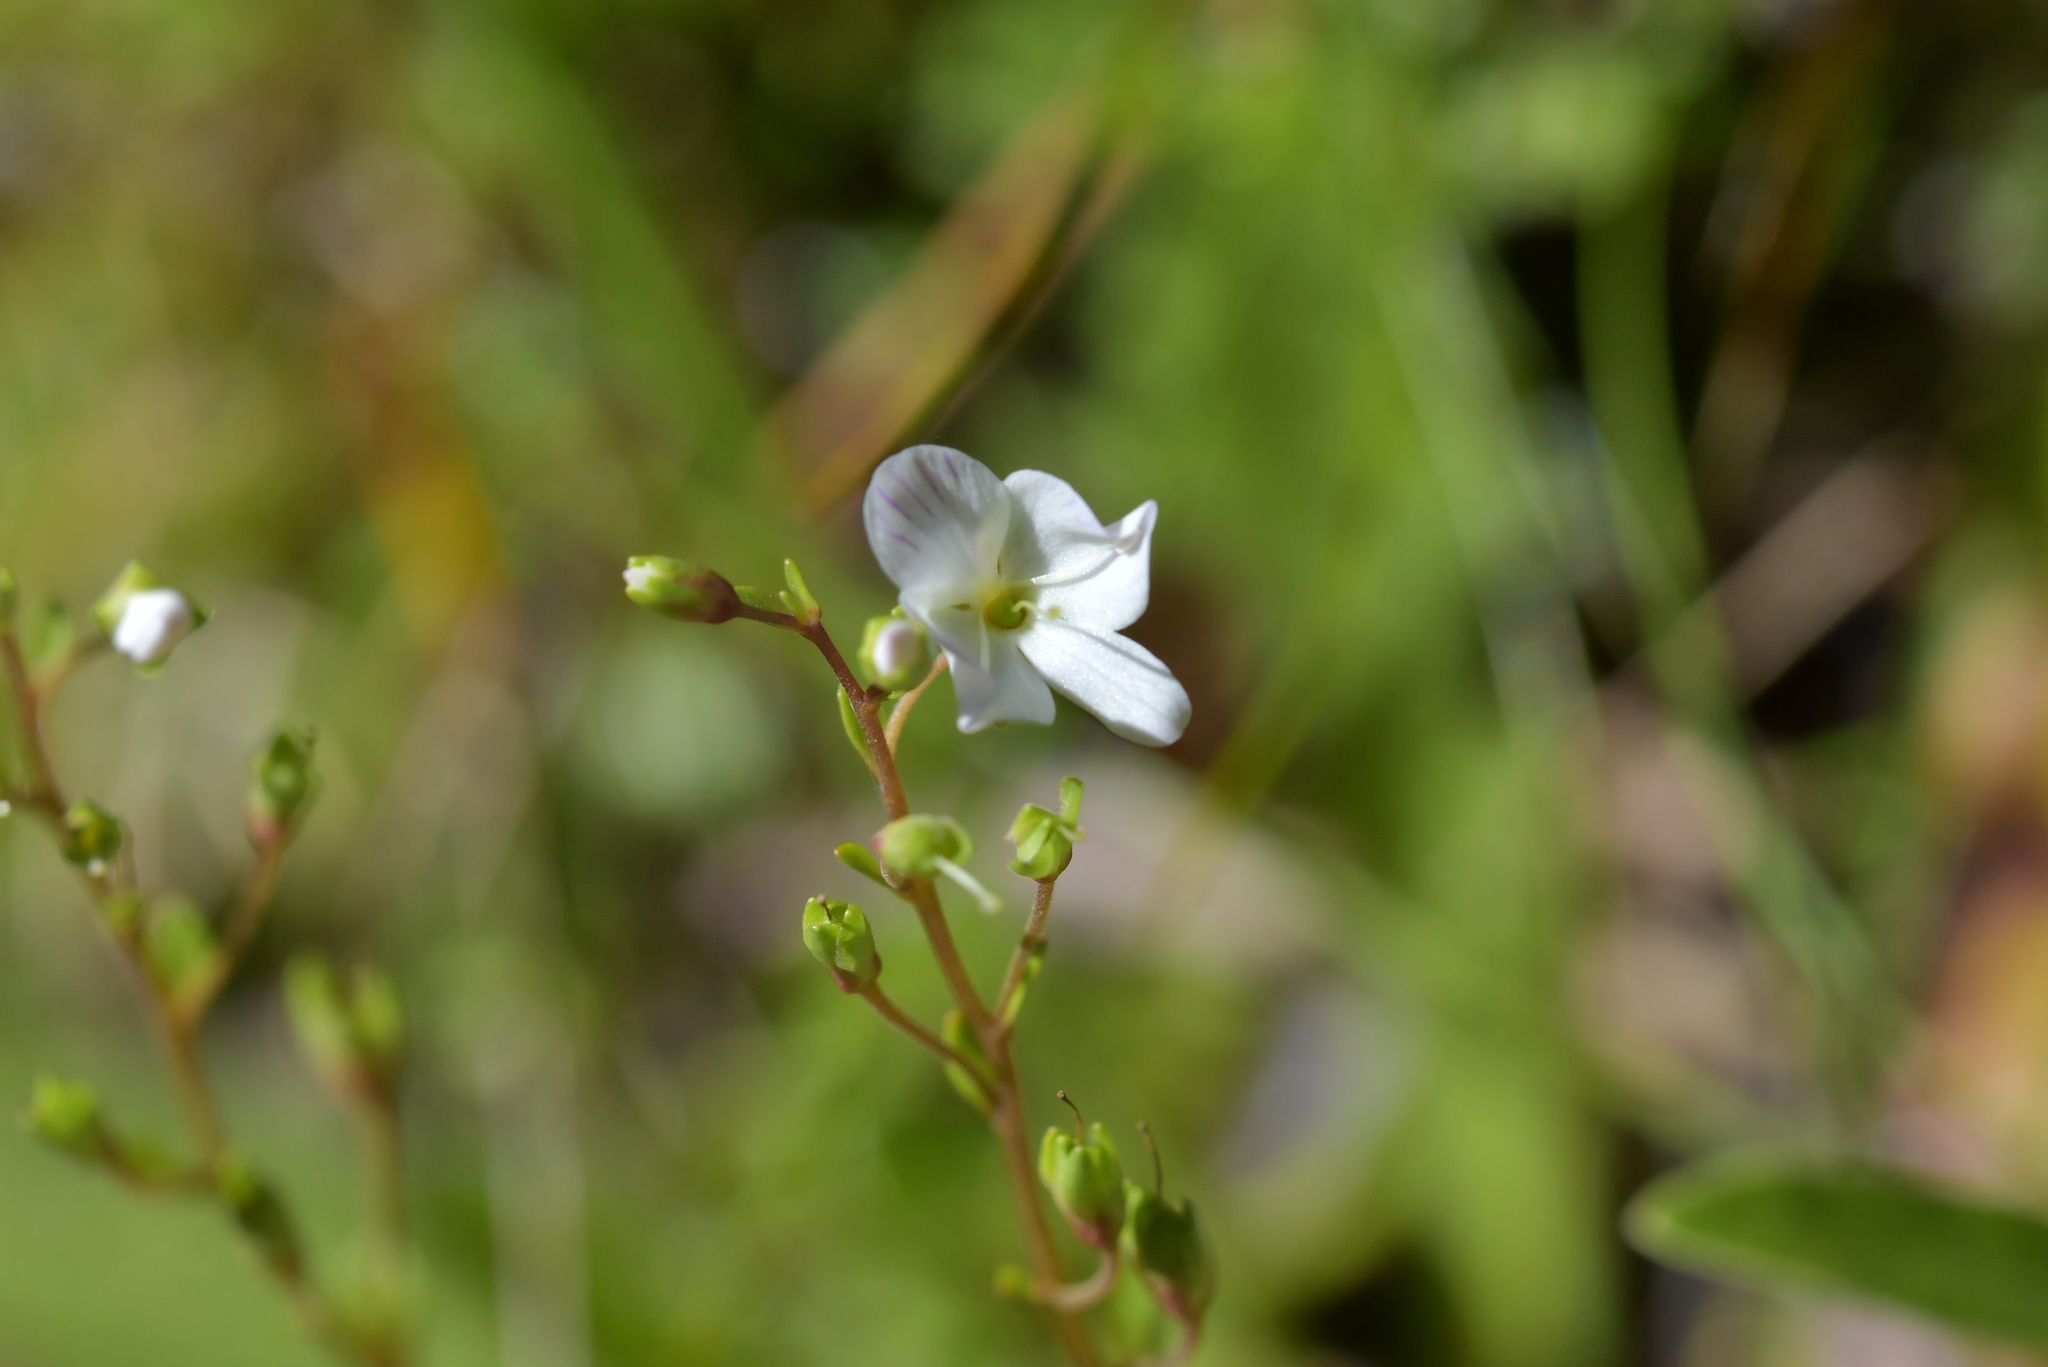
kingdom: Plantae
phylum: Tracheophyta
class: Magnoliopsida
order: Lamiales
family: Plantaginaceae
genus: Veronica
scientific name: Veronica lyallii
